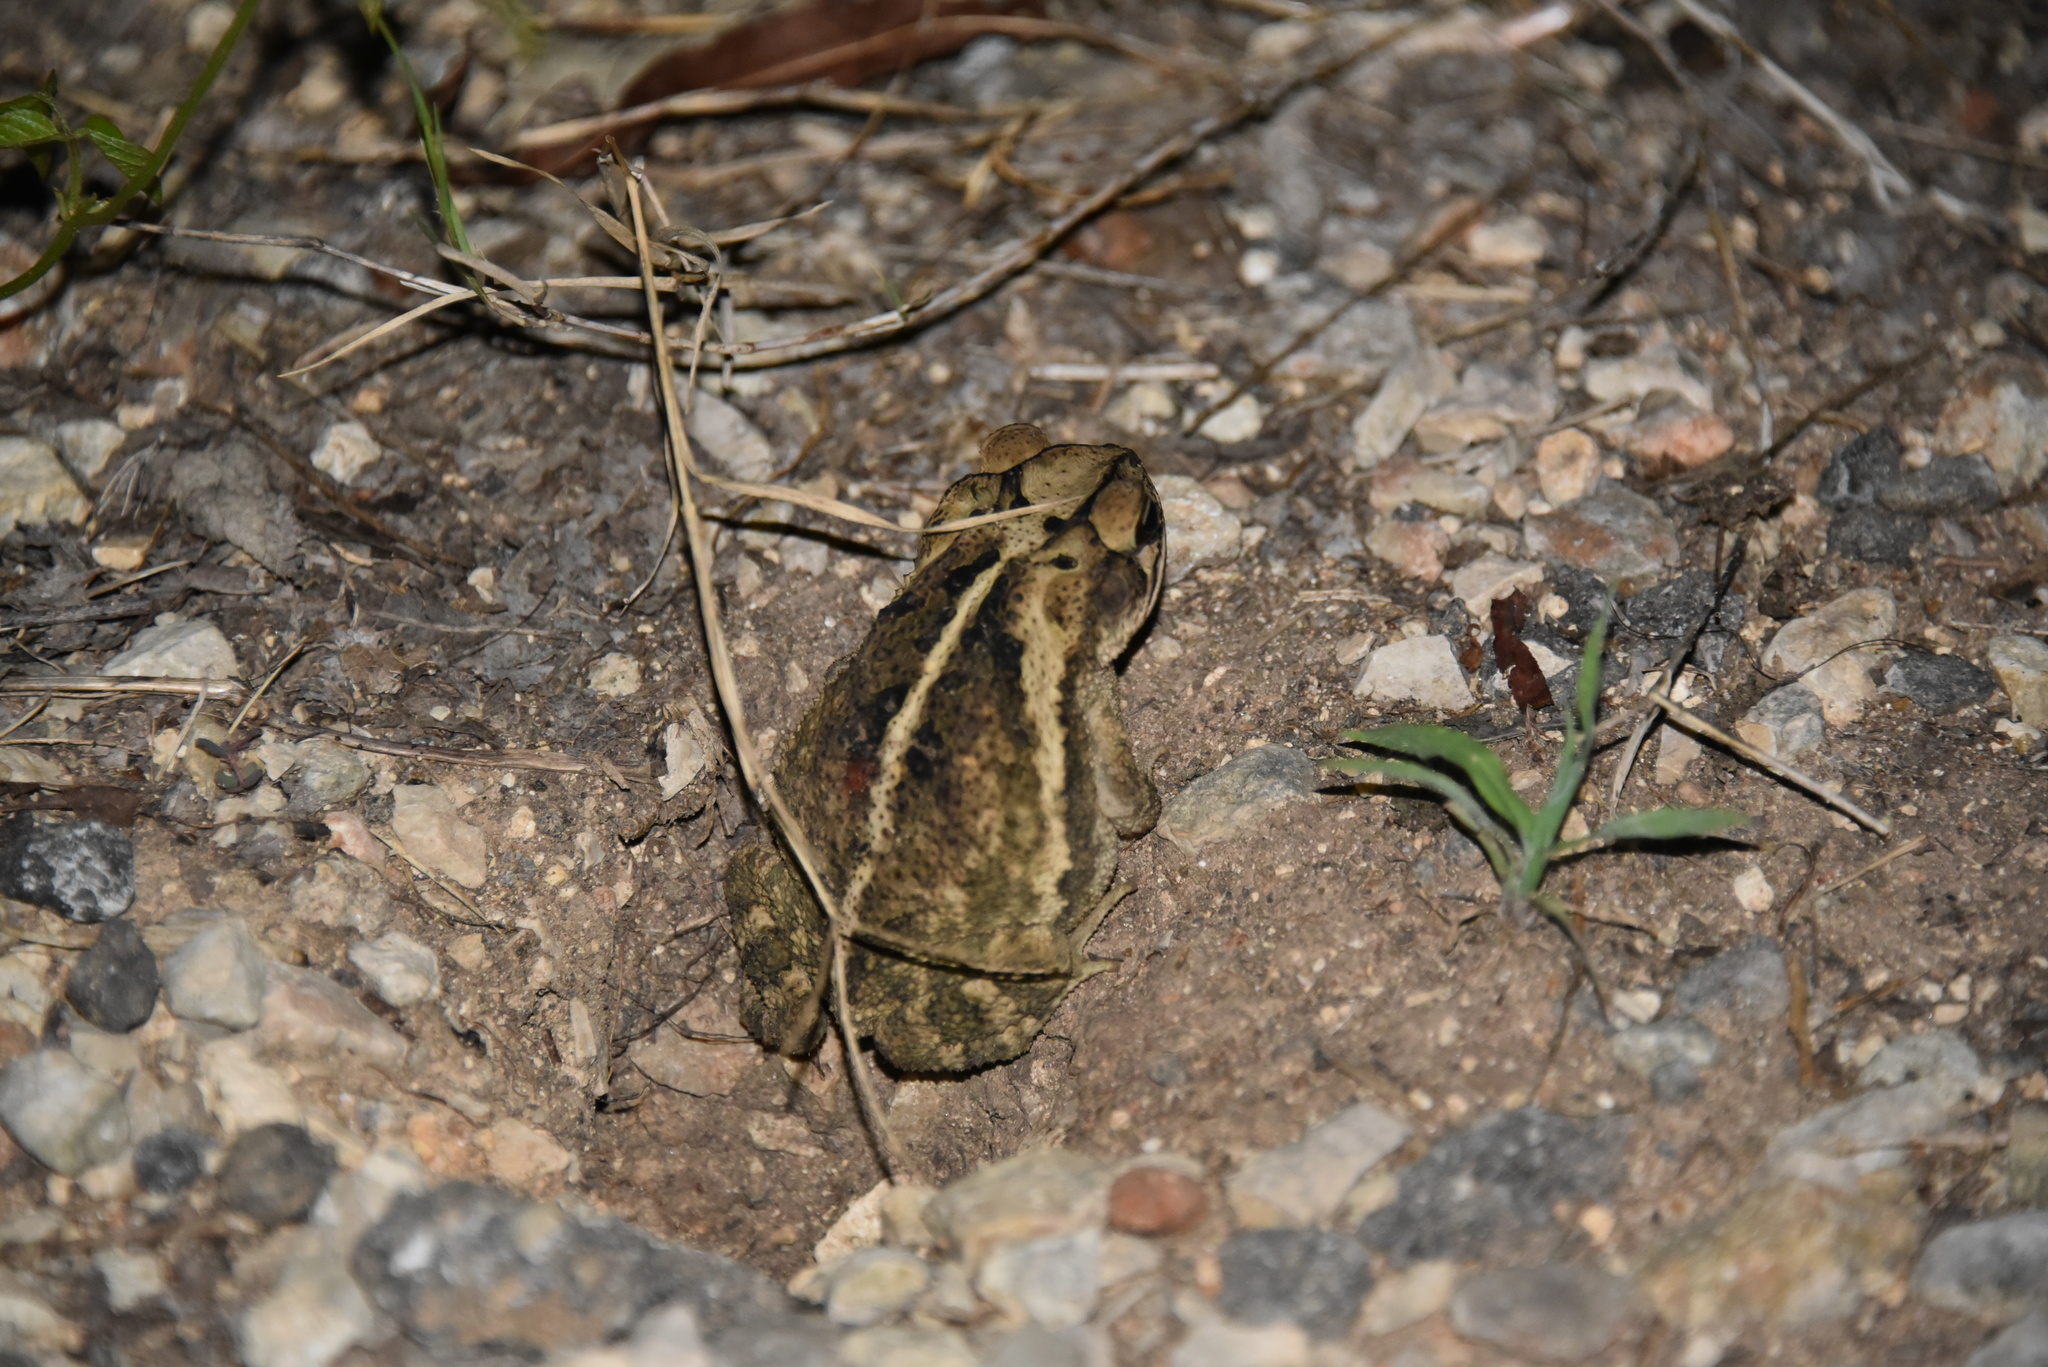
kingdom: Animalia
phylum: Chordata
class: Amphibia
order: Anura
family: Bufonidae
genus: Incilius
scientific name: Incilius nebulifer
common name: Gulf coast toad
